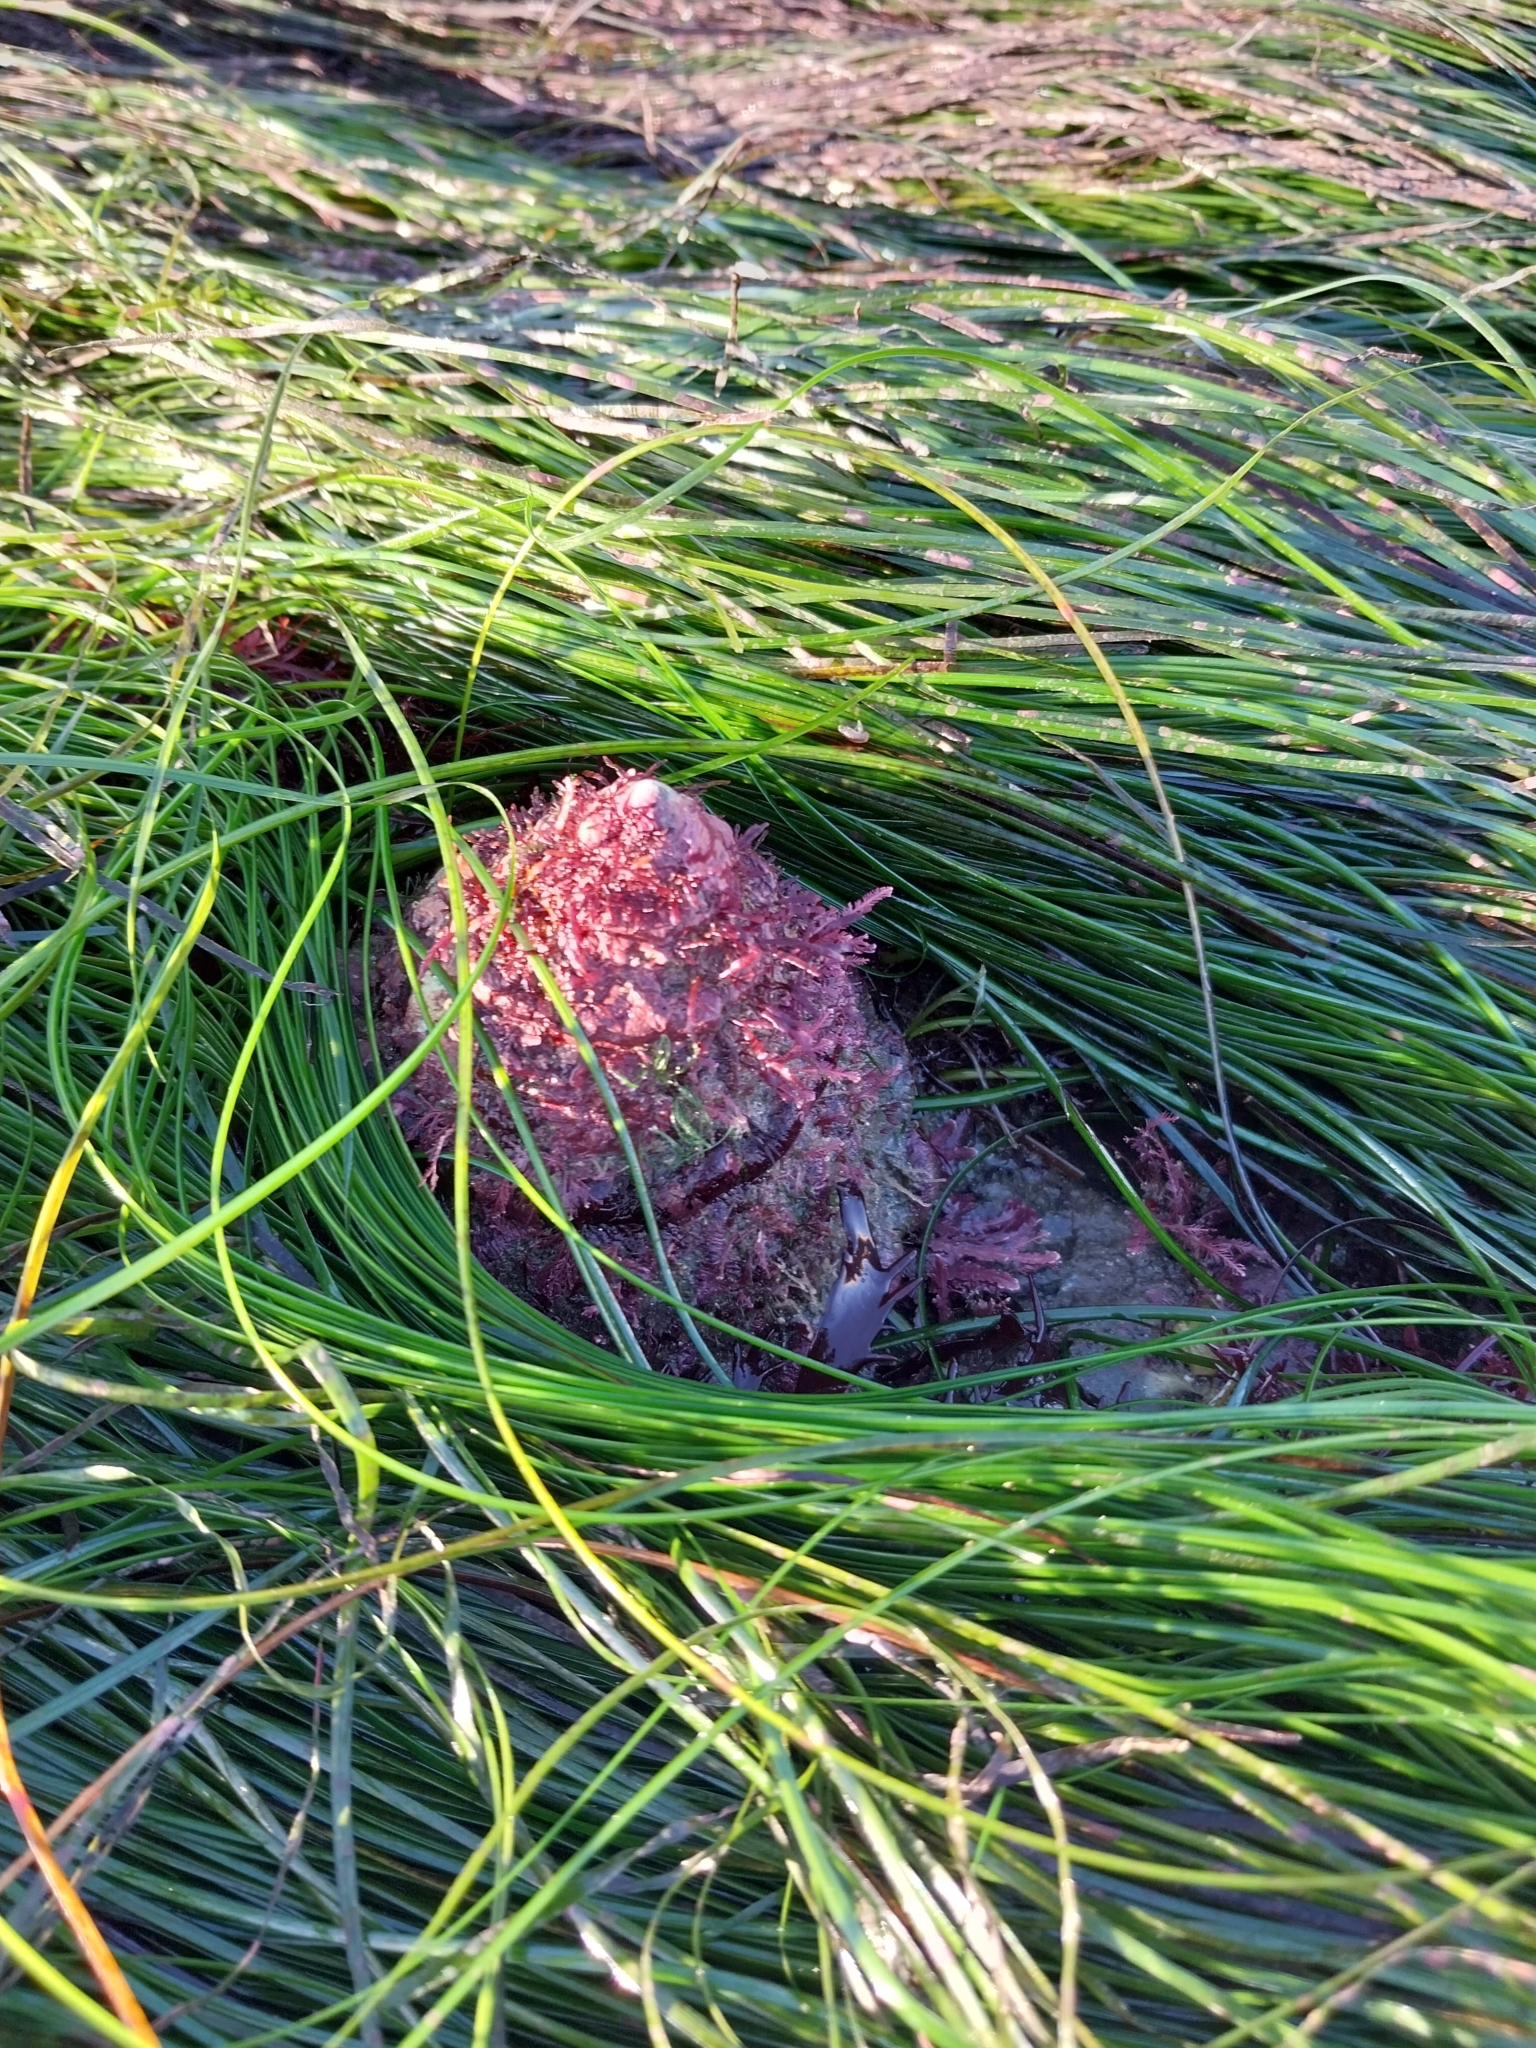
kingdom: Animalia
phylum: Mollusca
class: Gastropoda
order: Trochida
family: Turbinidae
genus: Megastraea
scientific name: Megastraea undosa
